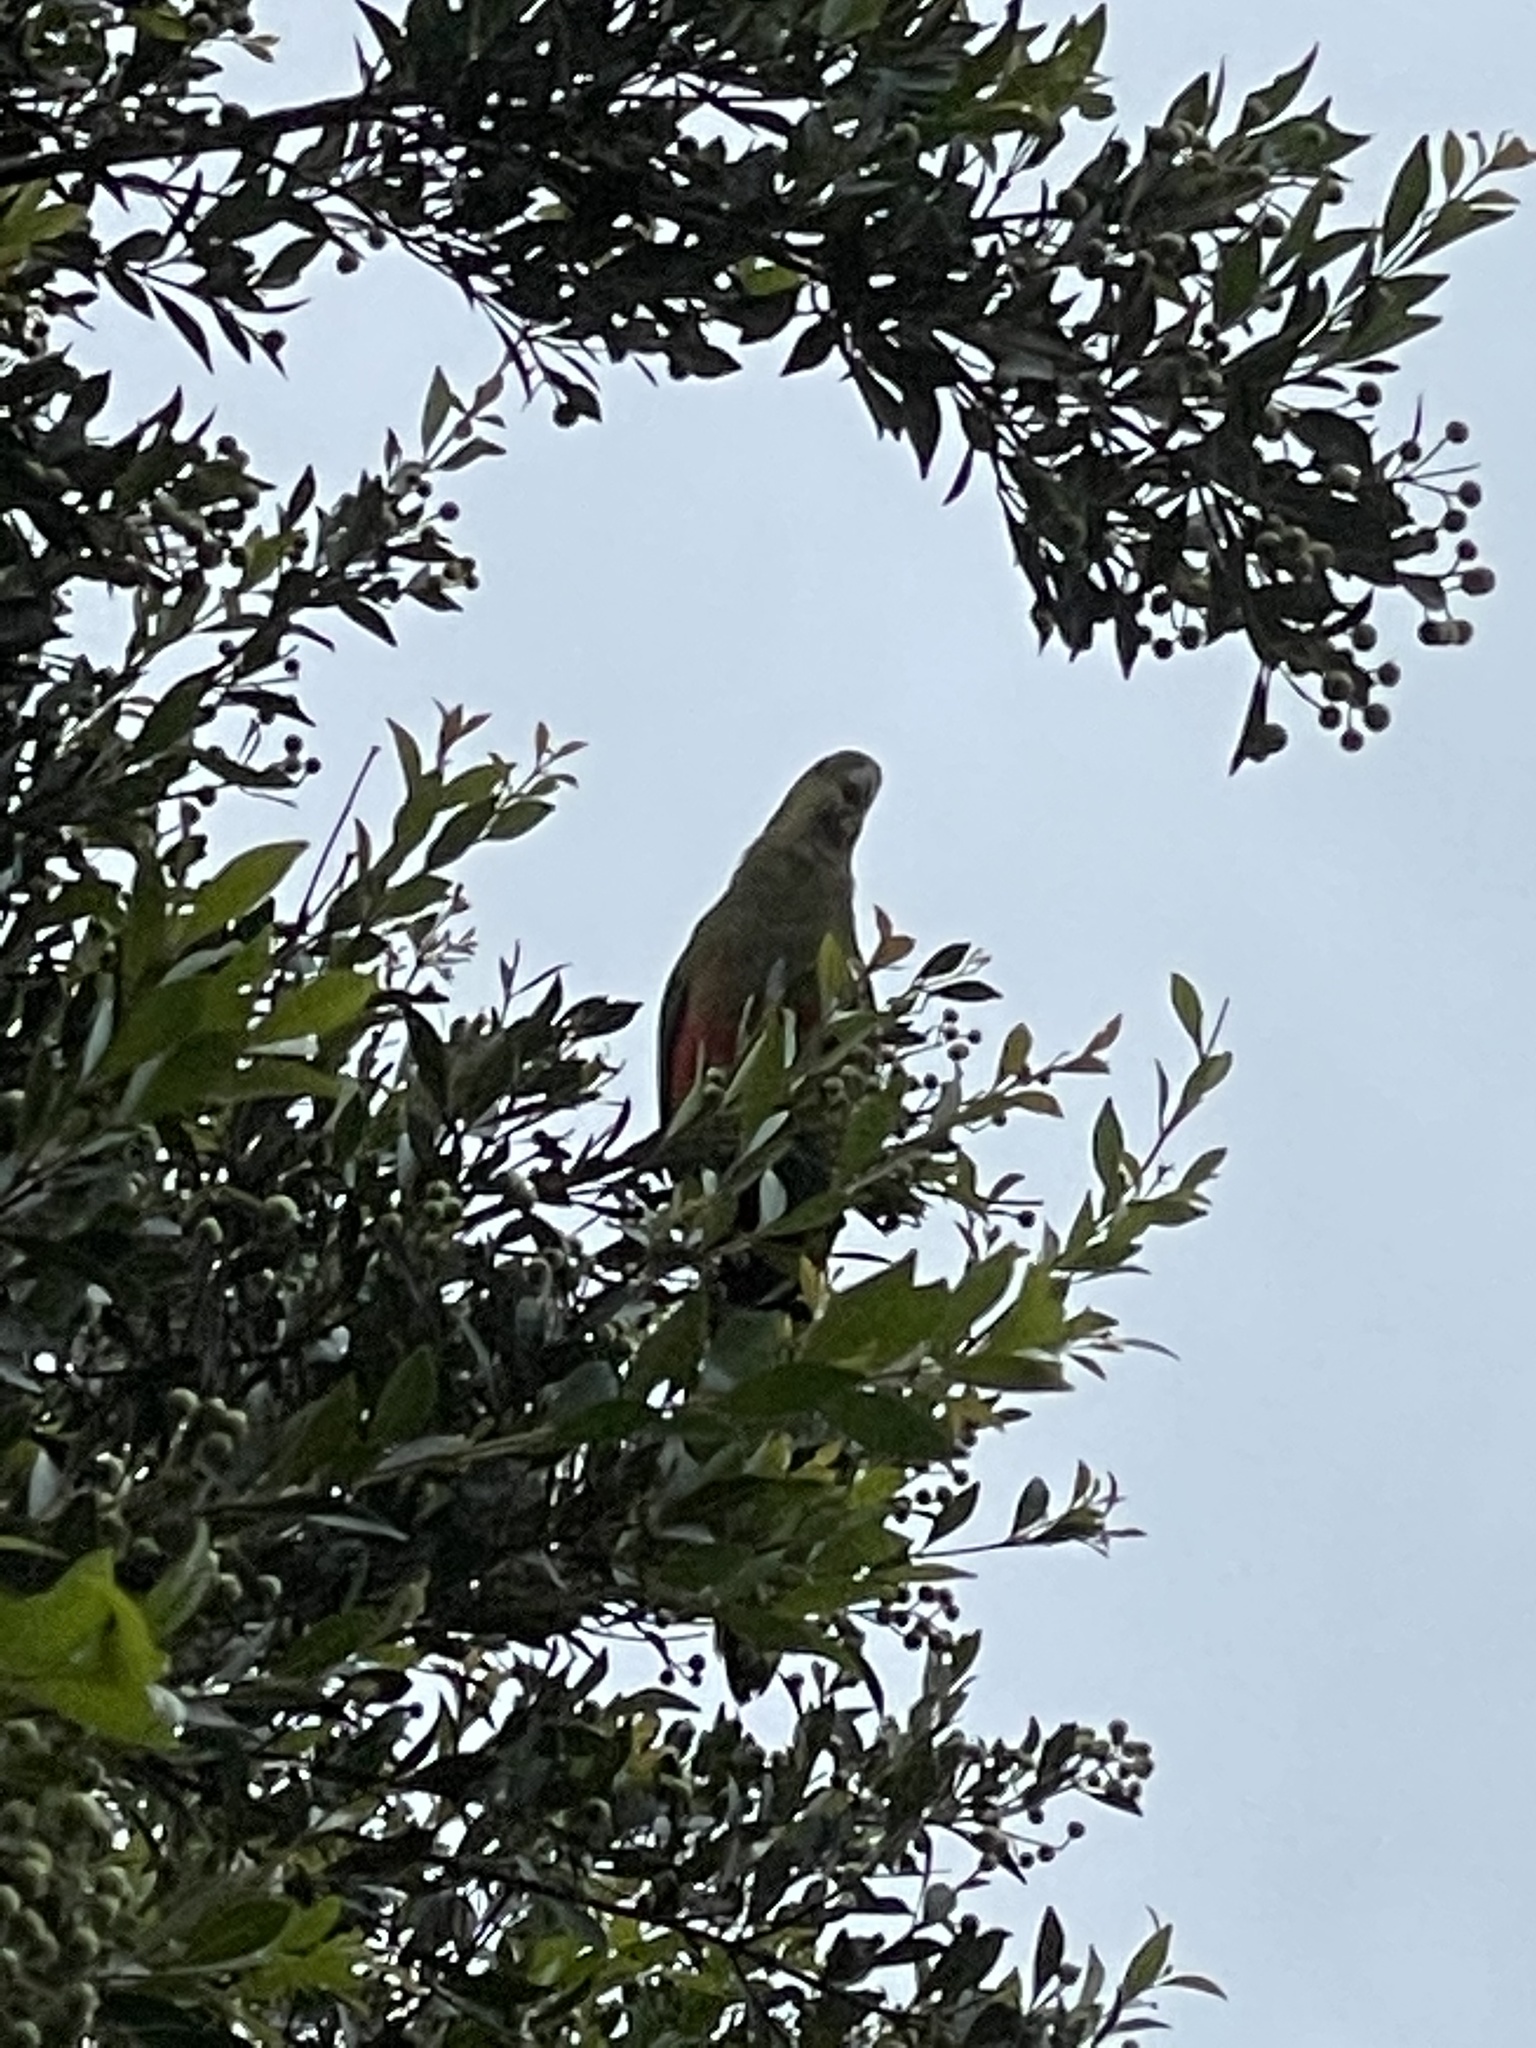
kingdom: Animalia
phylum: Chordata
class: Aves
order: Psittaciformes
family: Psittacidae
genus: Alisterus
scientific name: Alisterus scapularis
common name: Australian king parrot
